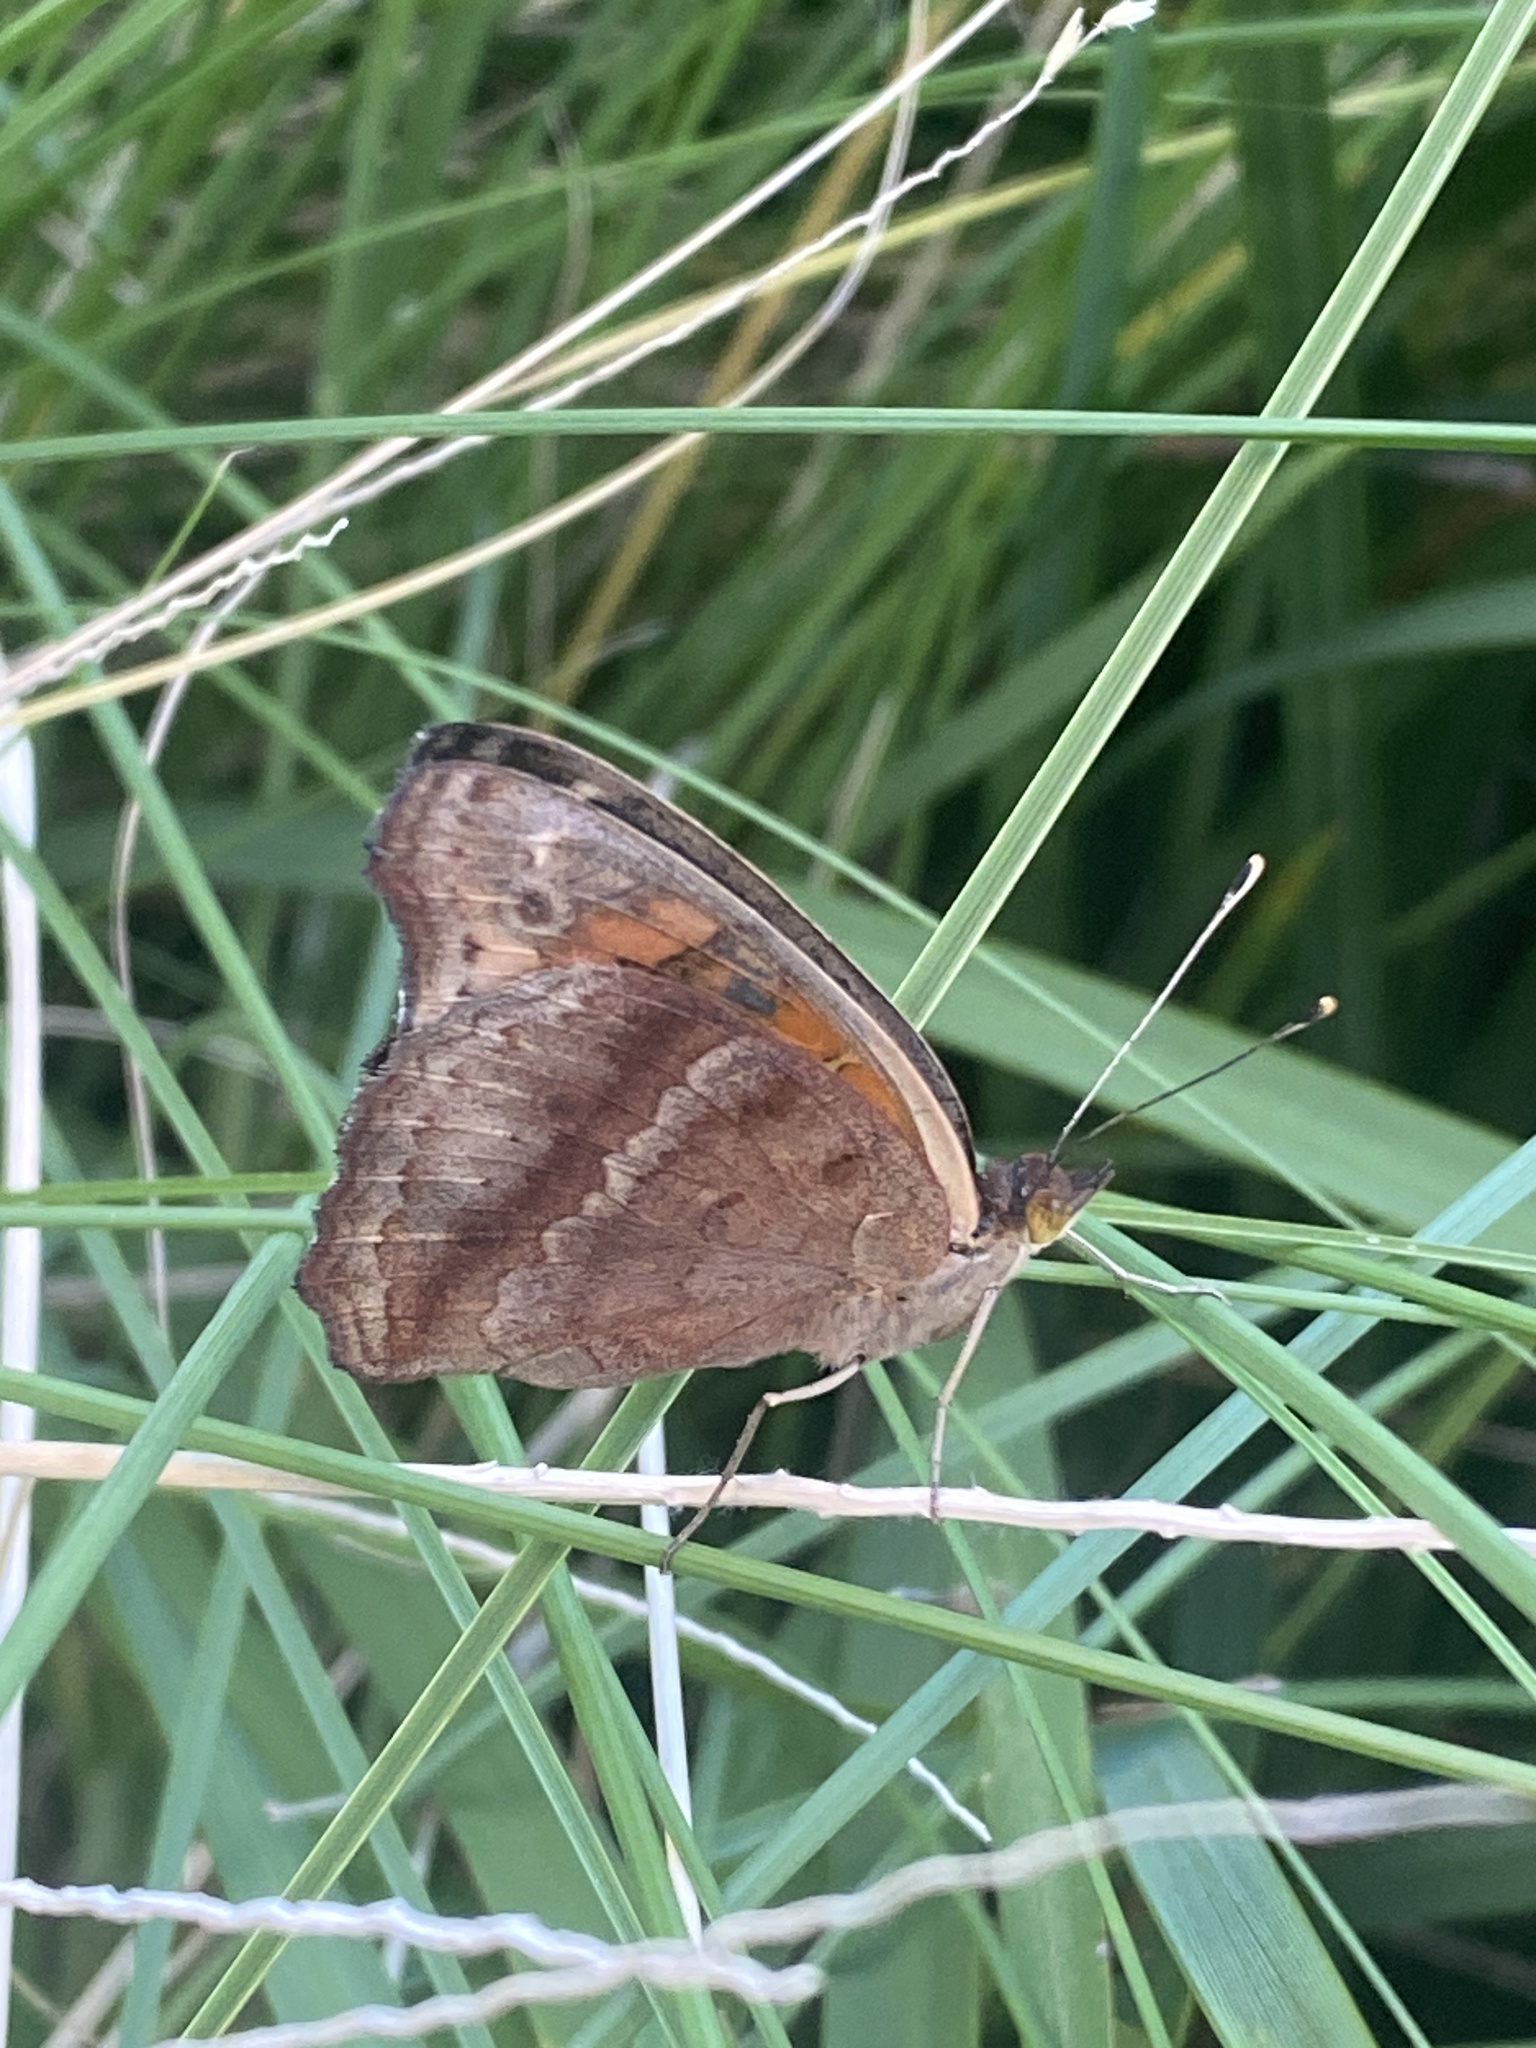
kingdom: Animalia
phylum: Arthropoda
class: Insecta
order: Lepidoptera
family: Nymphalidae
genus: Junonia
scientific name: Junonia lavinia
